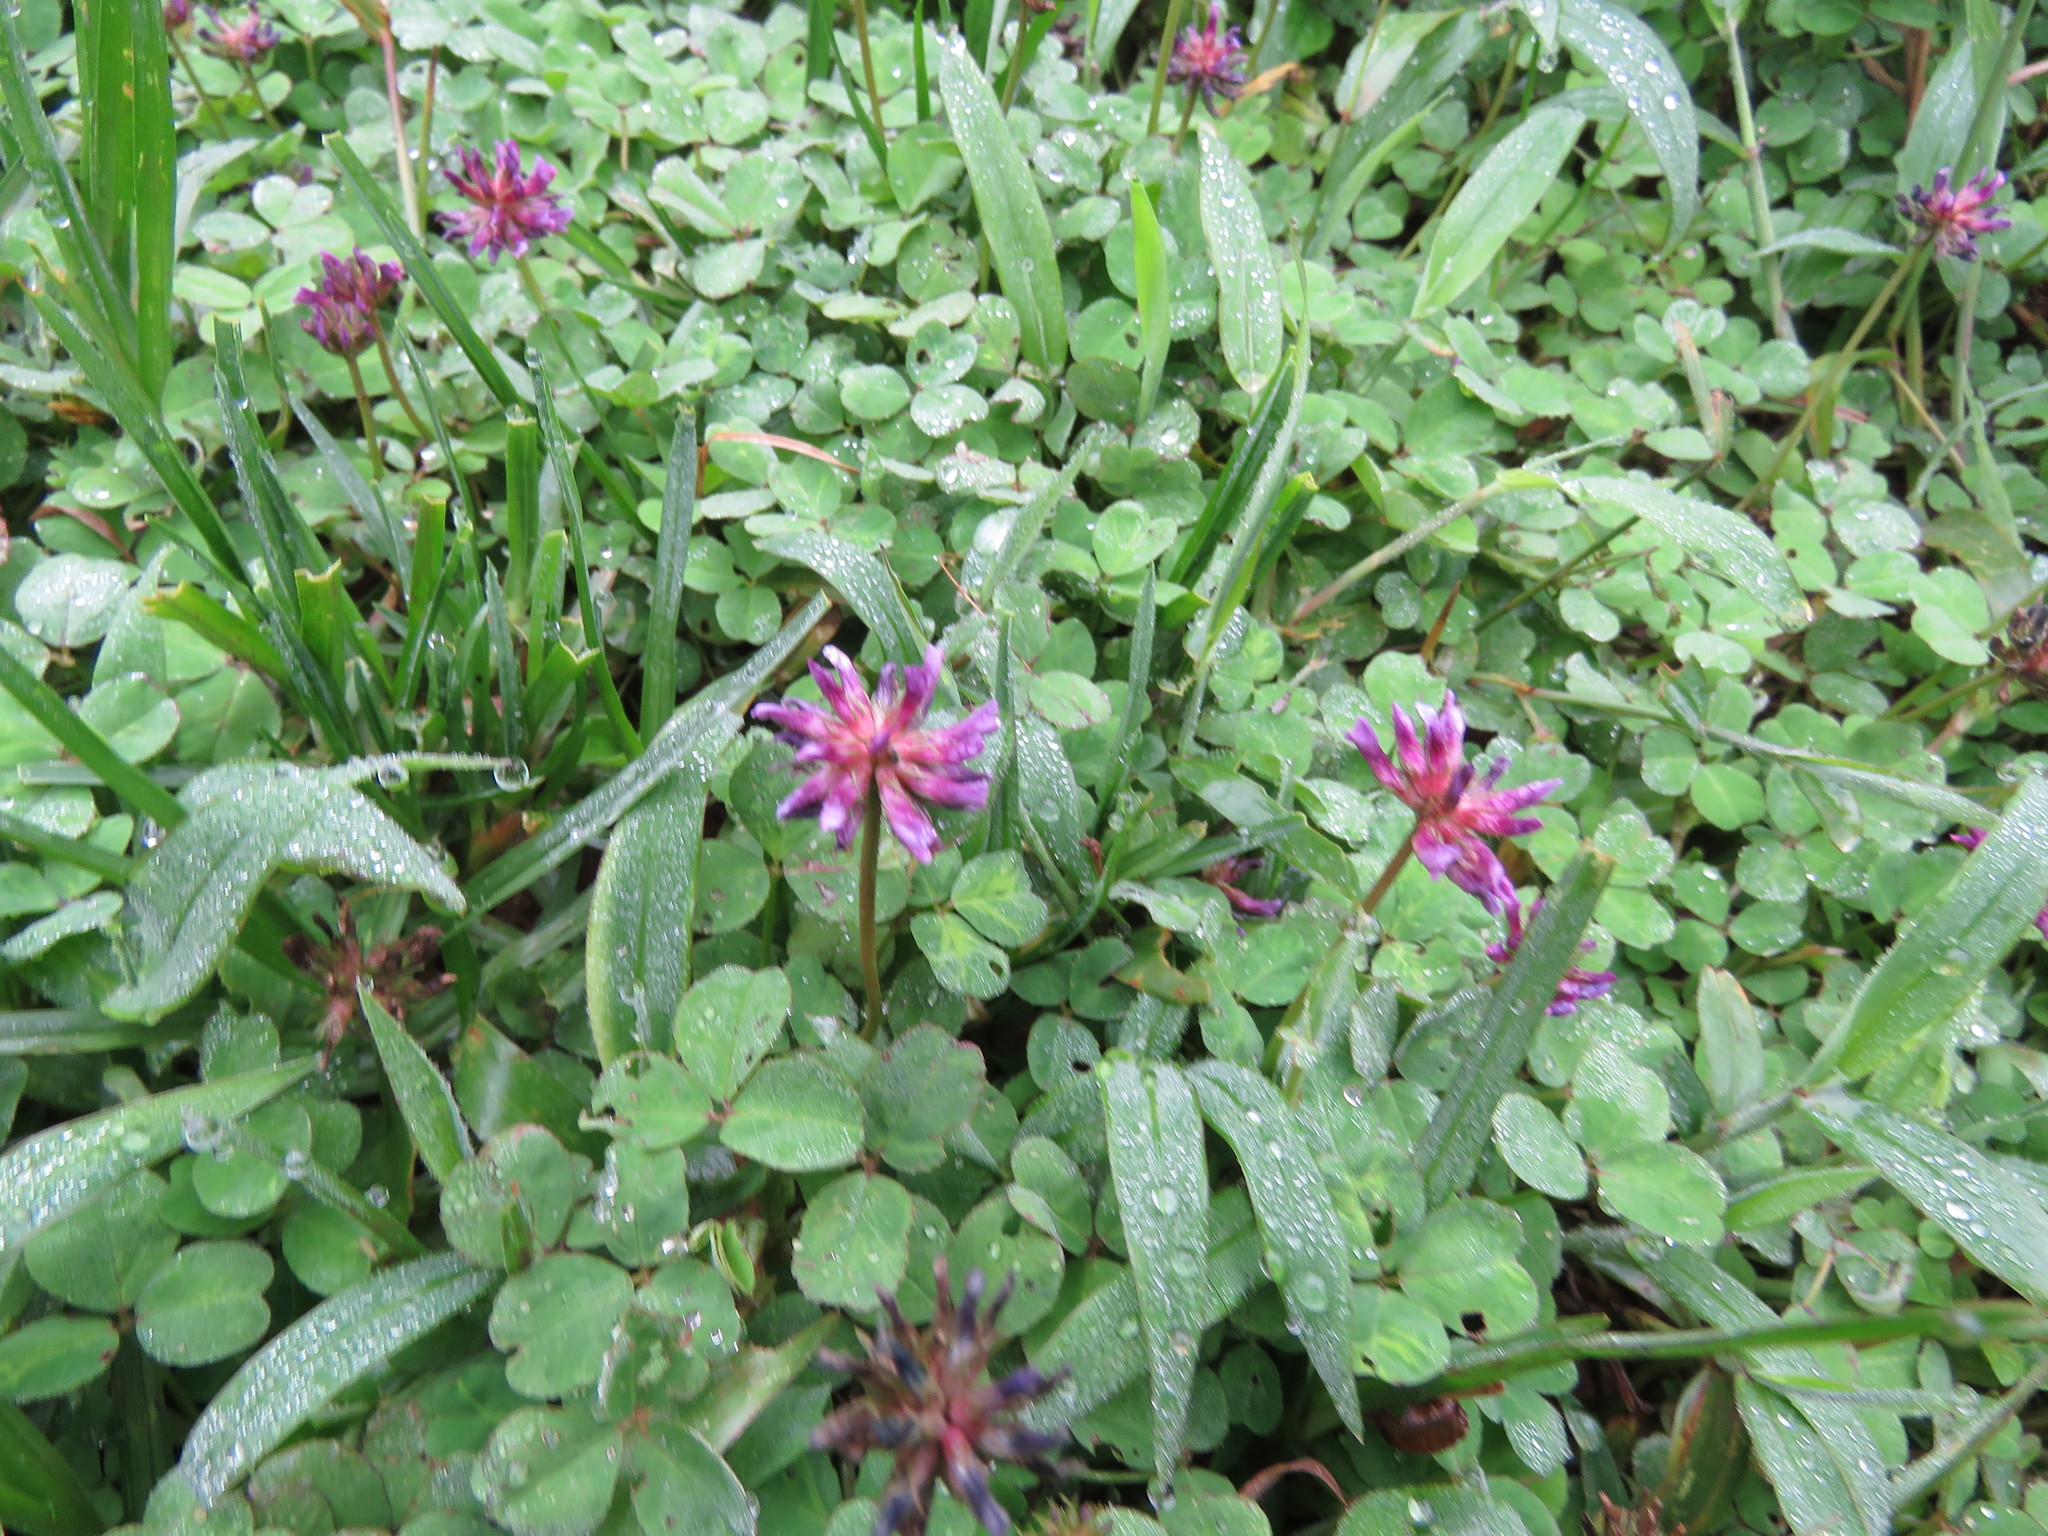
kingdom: Plantae
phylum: Tracheophyta
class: Magnoliopsida
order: Fabales
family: Fabaceae
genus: Trifolium
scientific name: Trifolium burchellianum
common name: Burchell's clover
